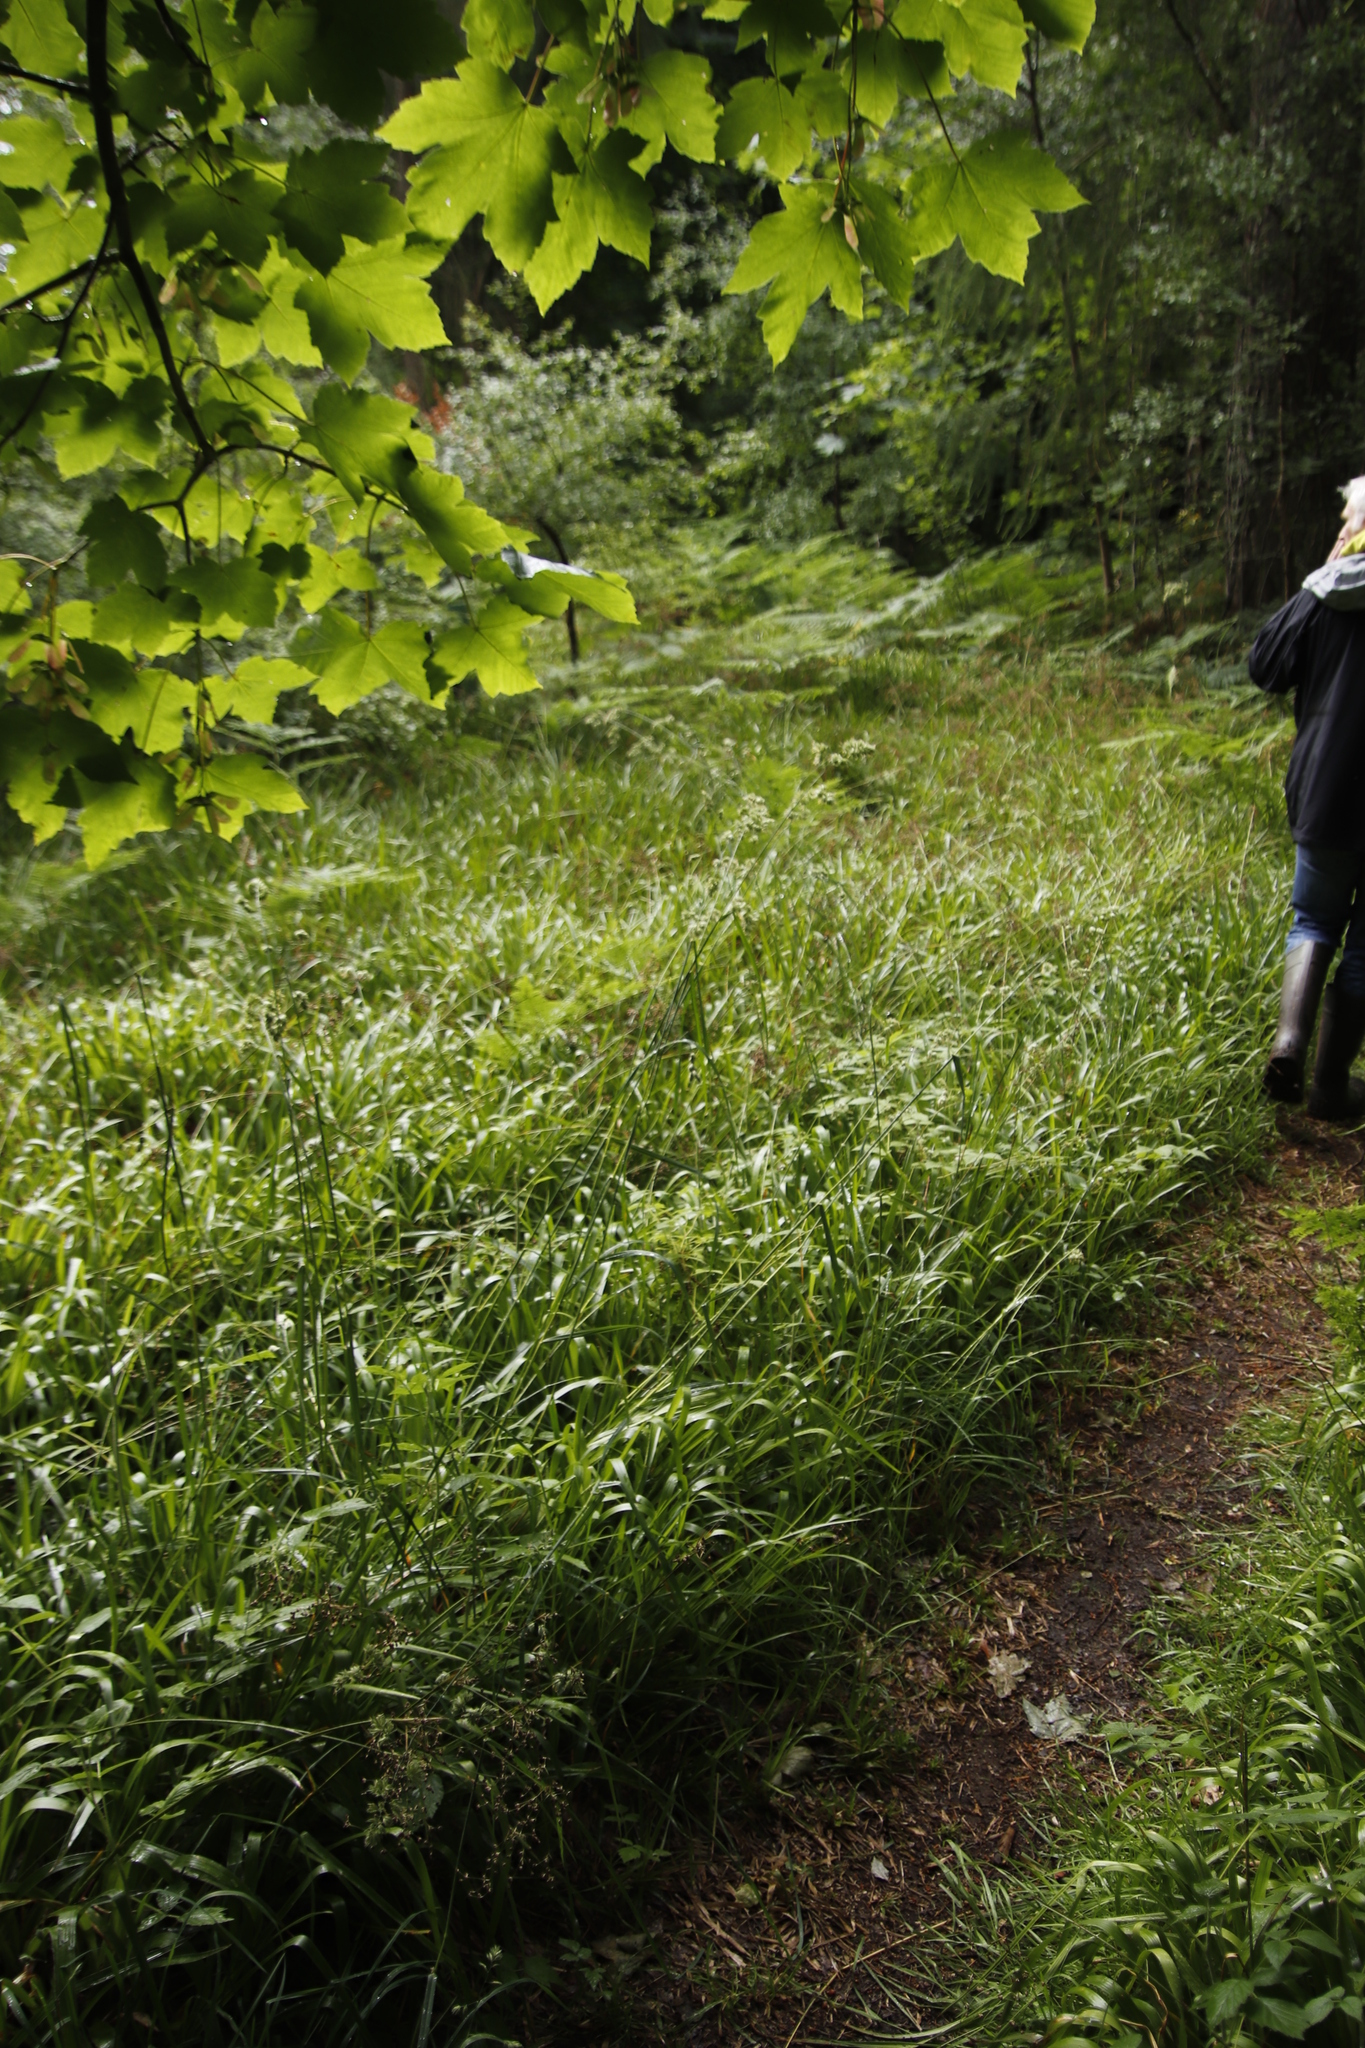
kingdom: Plantae
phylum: Tracheophyta
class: Liliopsida
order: Poales
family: Poaceae
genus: Dactylis
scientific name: Dactylis glomerata
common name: Orchardgrass
